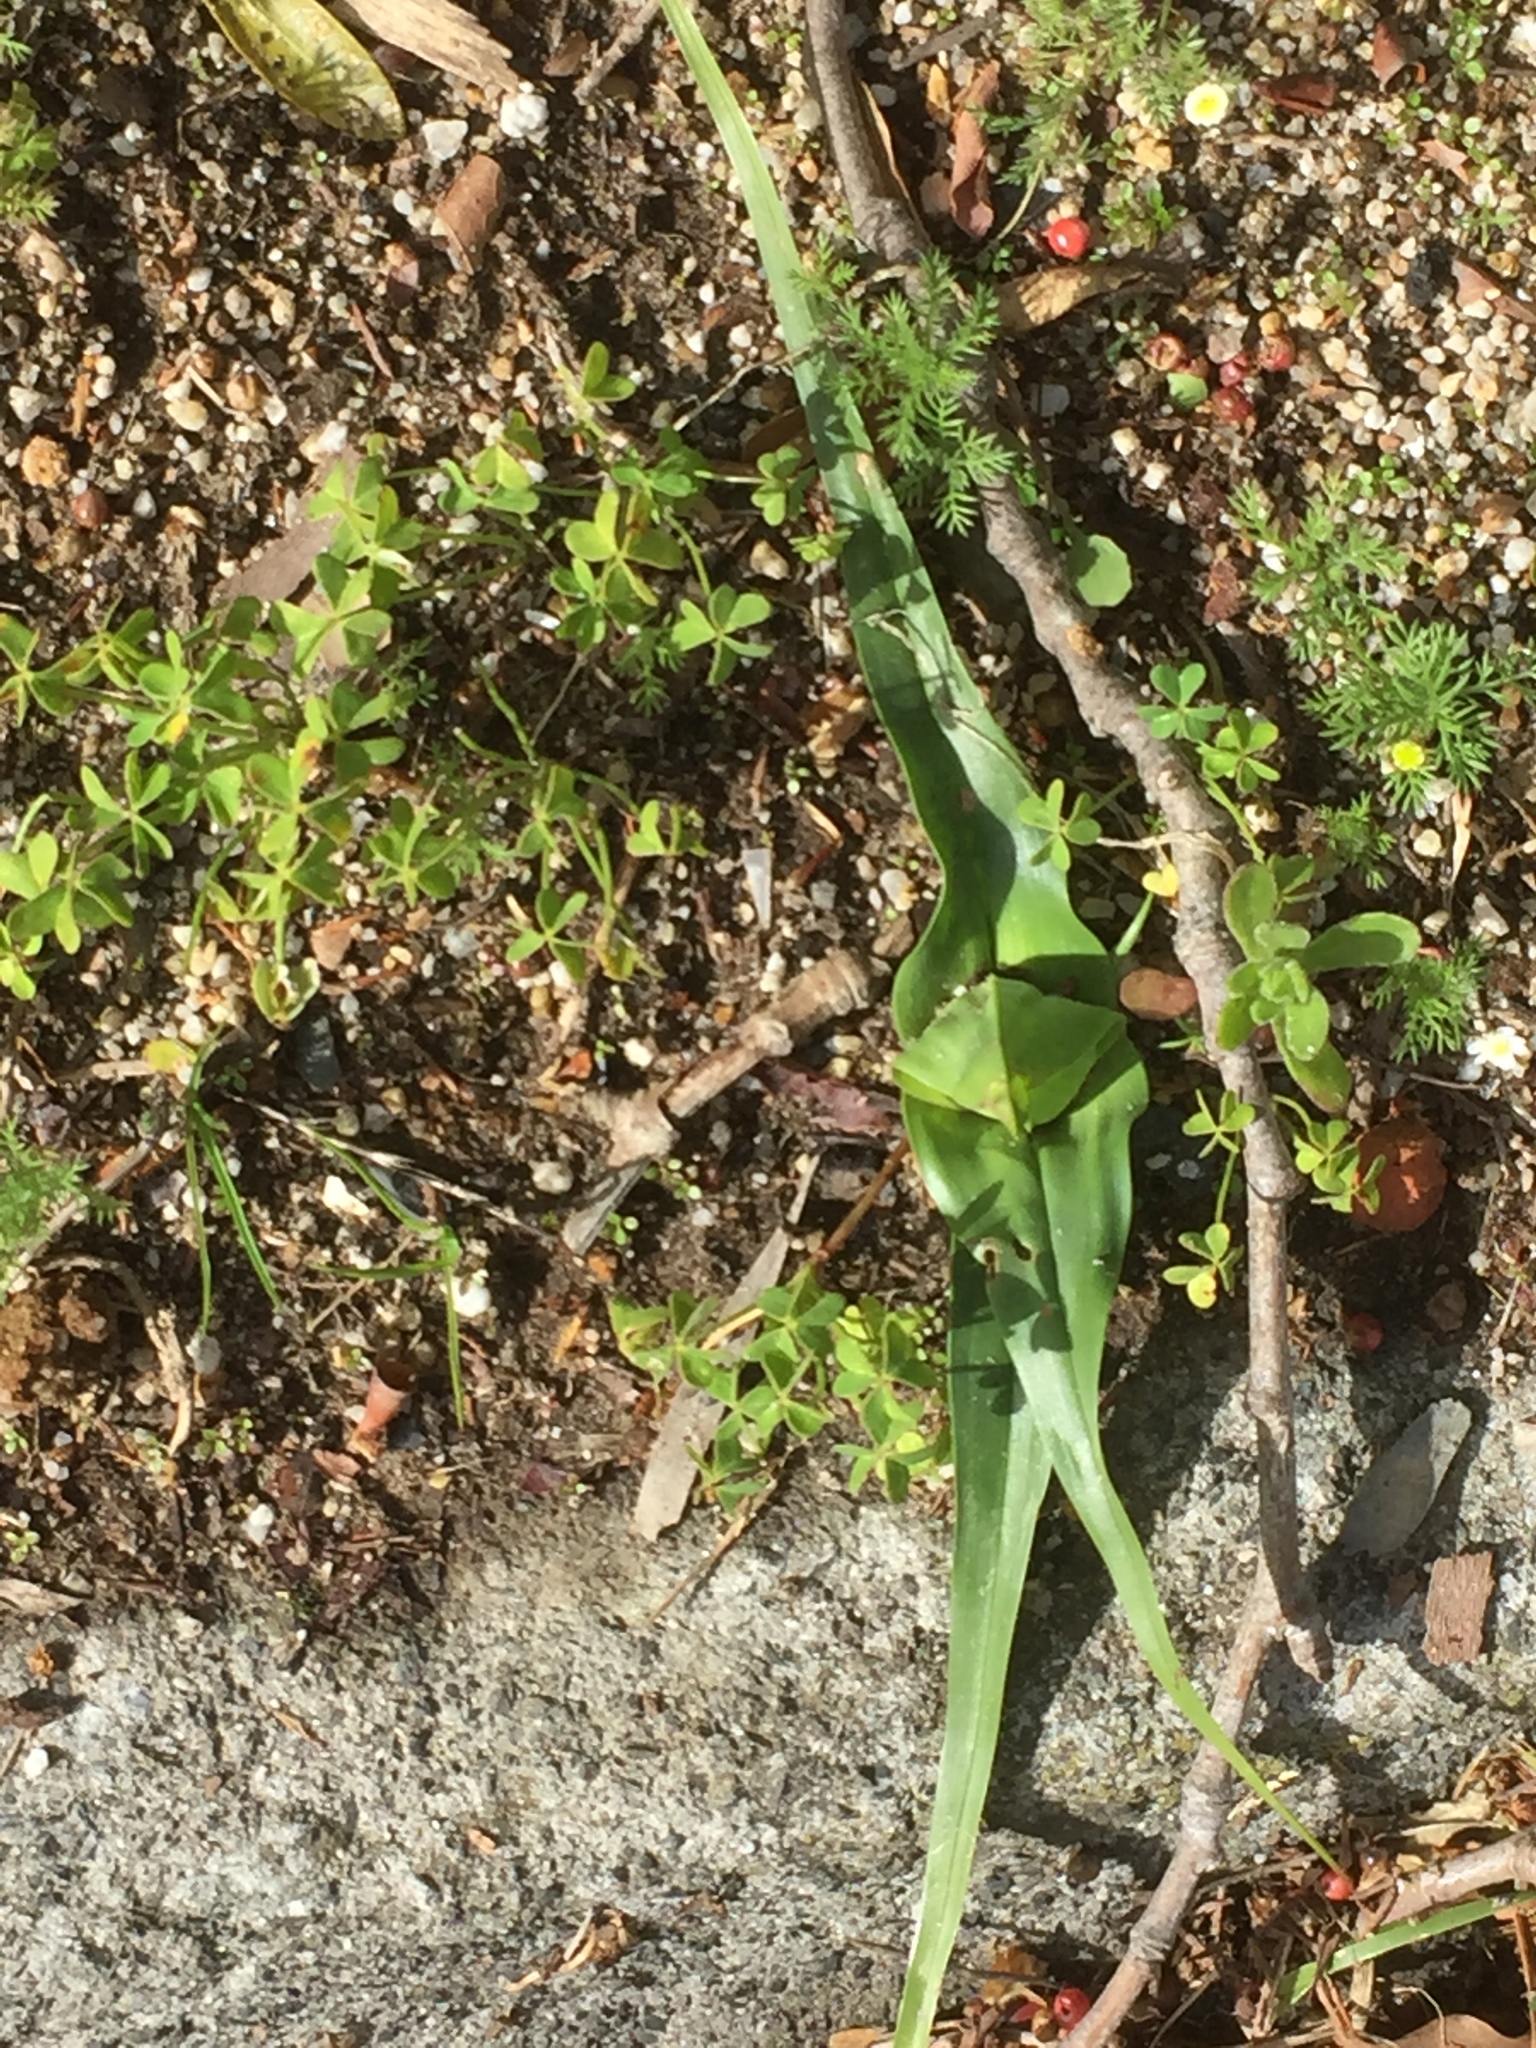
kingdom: Plantae
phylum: Tracheophyta
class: Liliopsida
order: Liliales
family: Colchicaceae
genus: Colchicum
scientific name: Colchicum eucomoides
